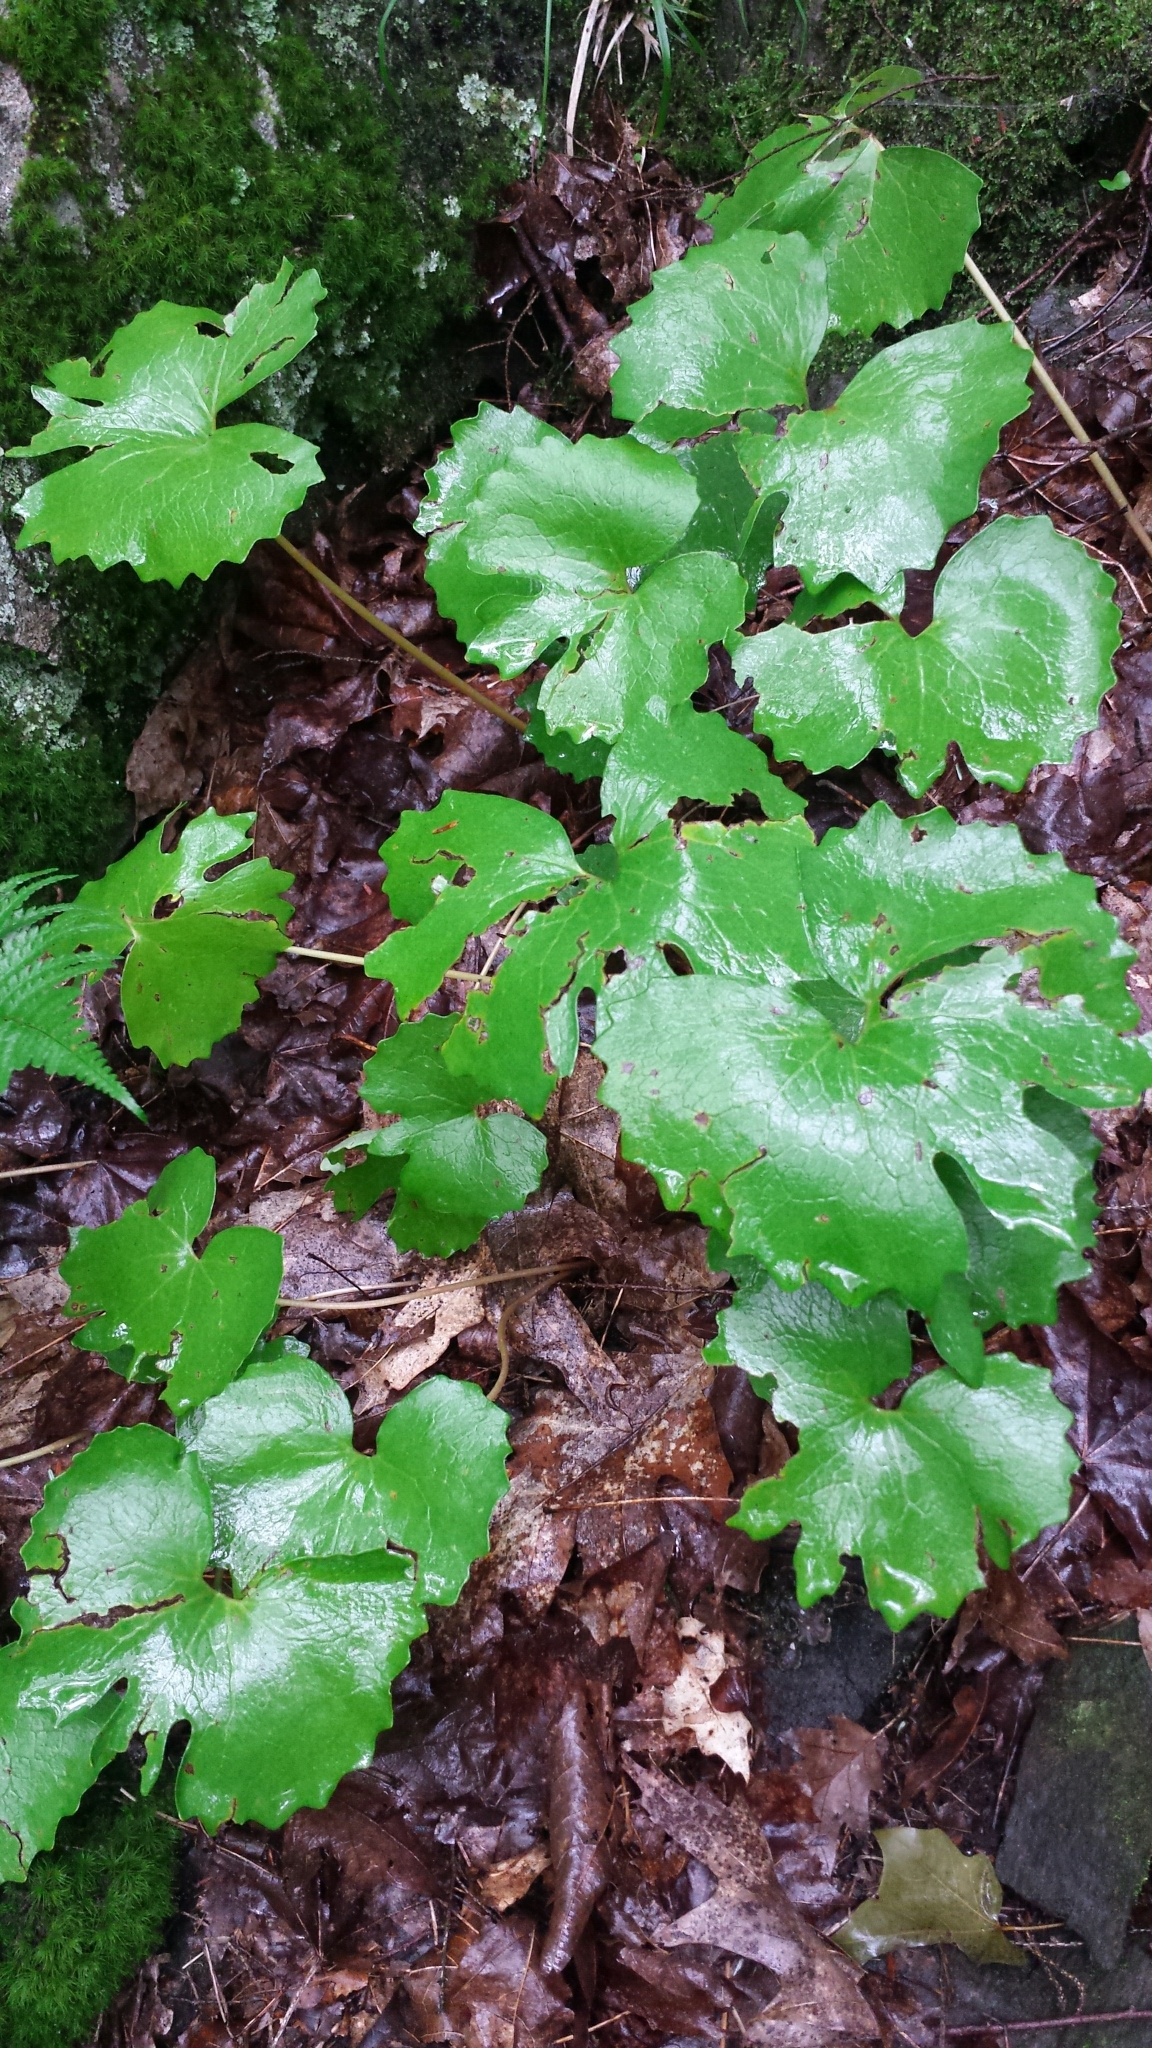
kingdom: Plantae
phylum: Tracheophyta
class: Magnoliopsida
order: Ranunculales
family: Papaveraceae
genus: Sanguinaria
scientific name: Sanguinaria canadensis
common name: Bloodroot
